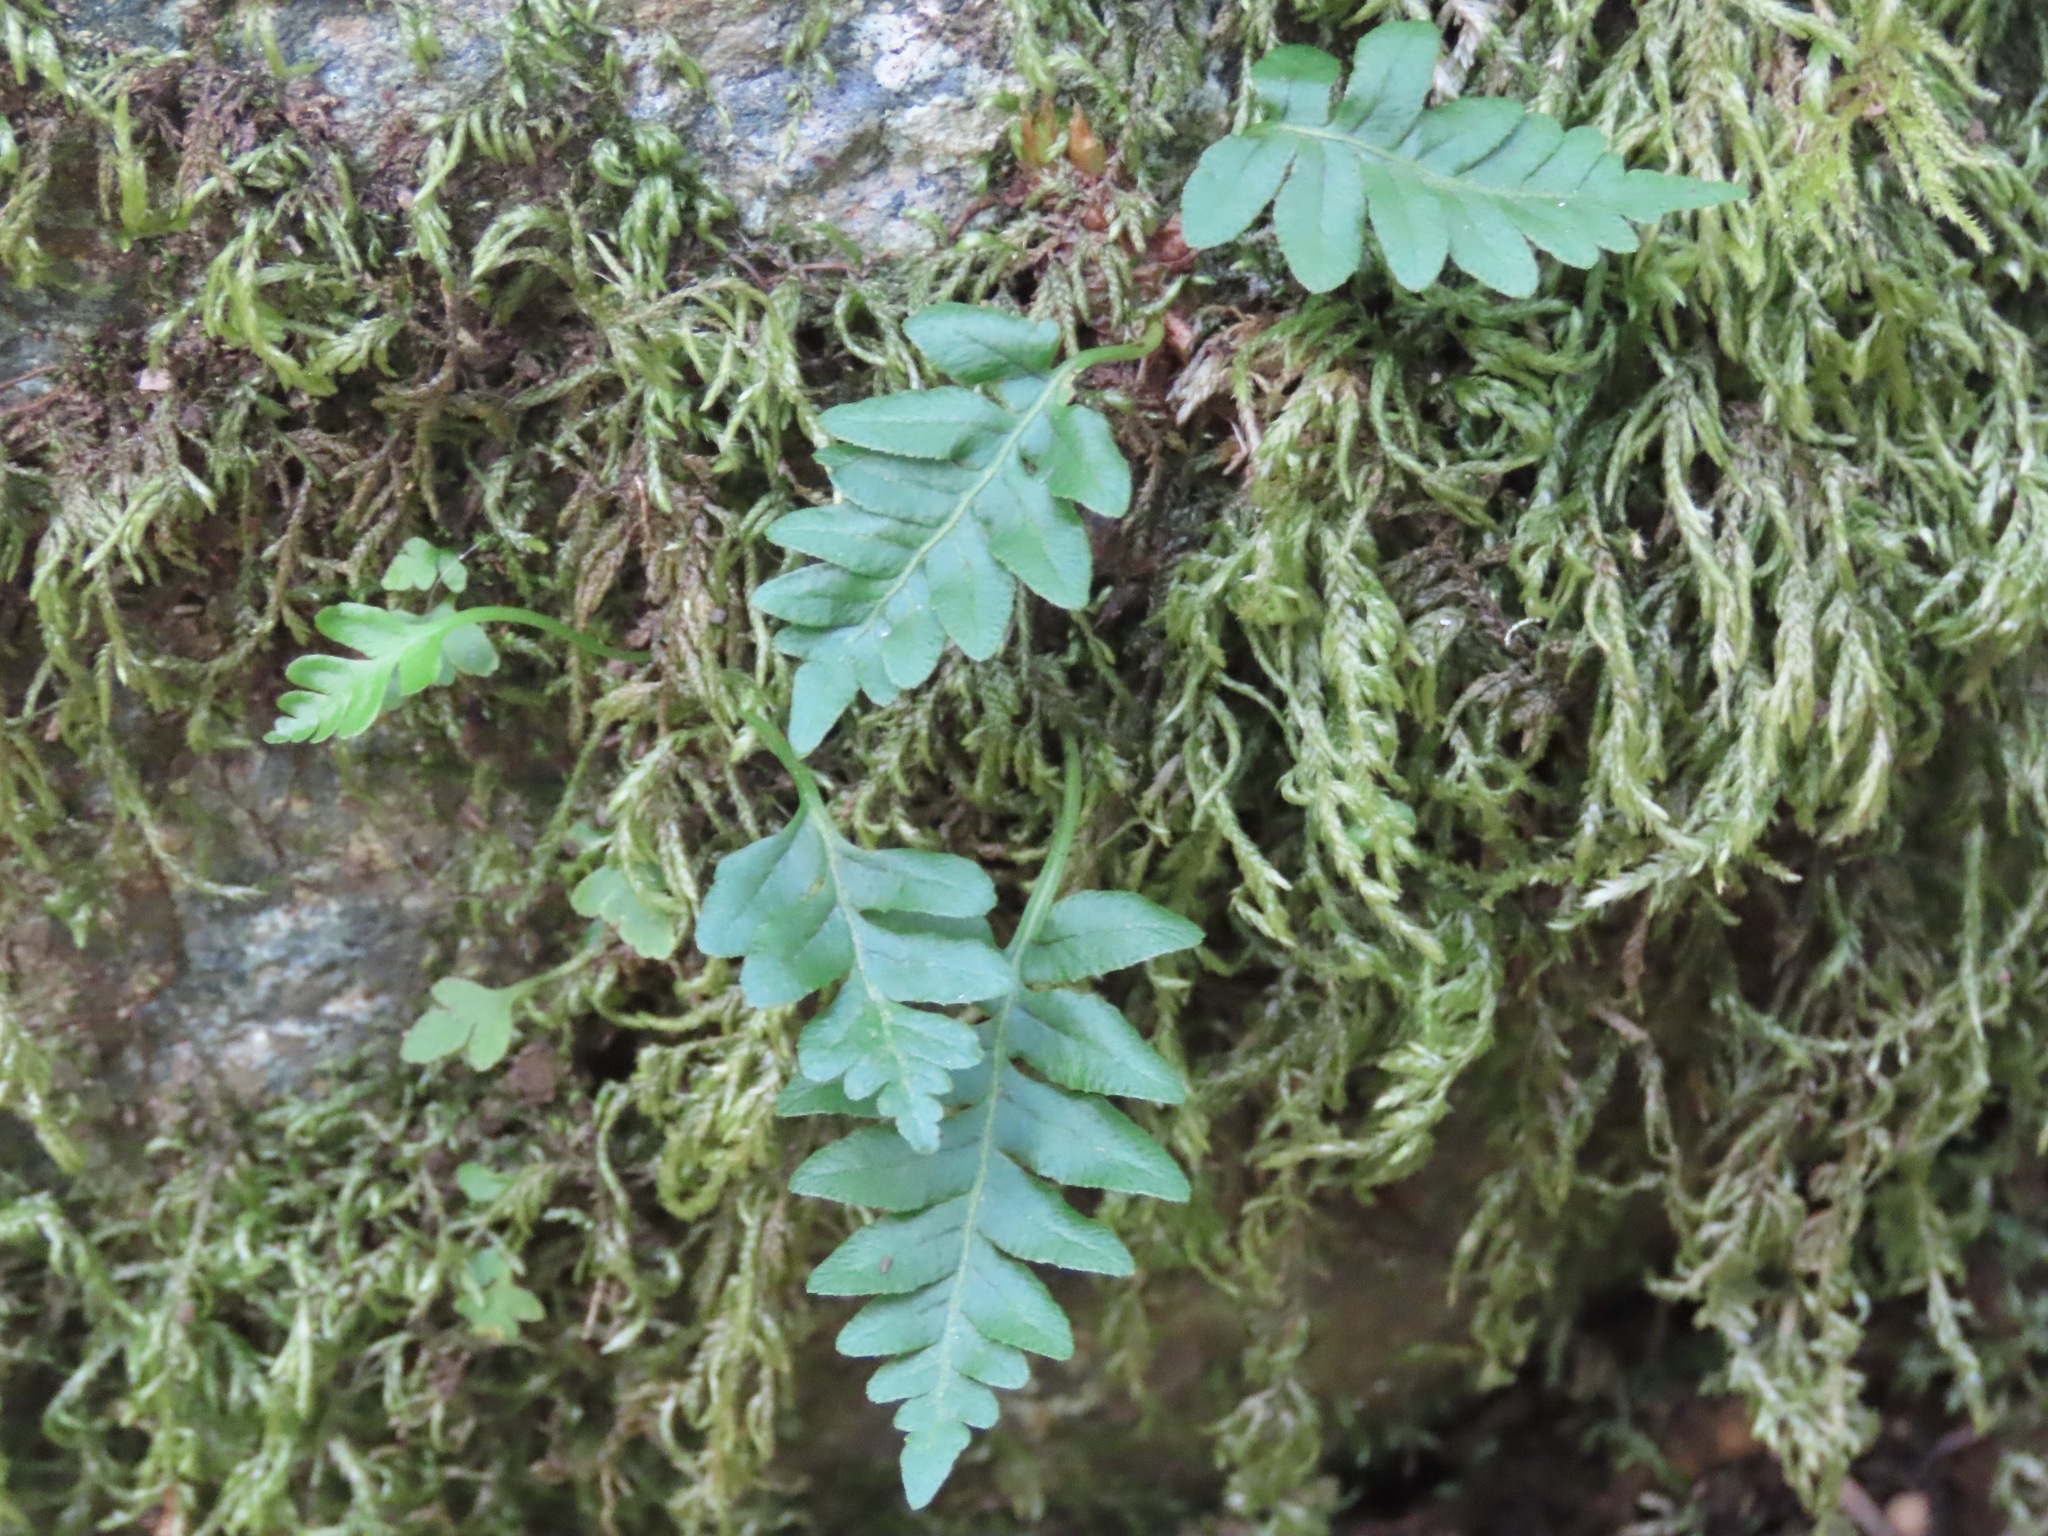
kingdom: Plantae
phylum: Tracheophyta
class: Polypodiopsida
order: Polypodiales
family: Polypodiaceae
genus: Polypodium
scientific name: Polypodium glycyrrhiza
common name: Licorice fern
